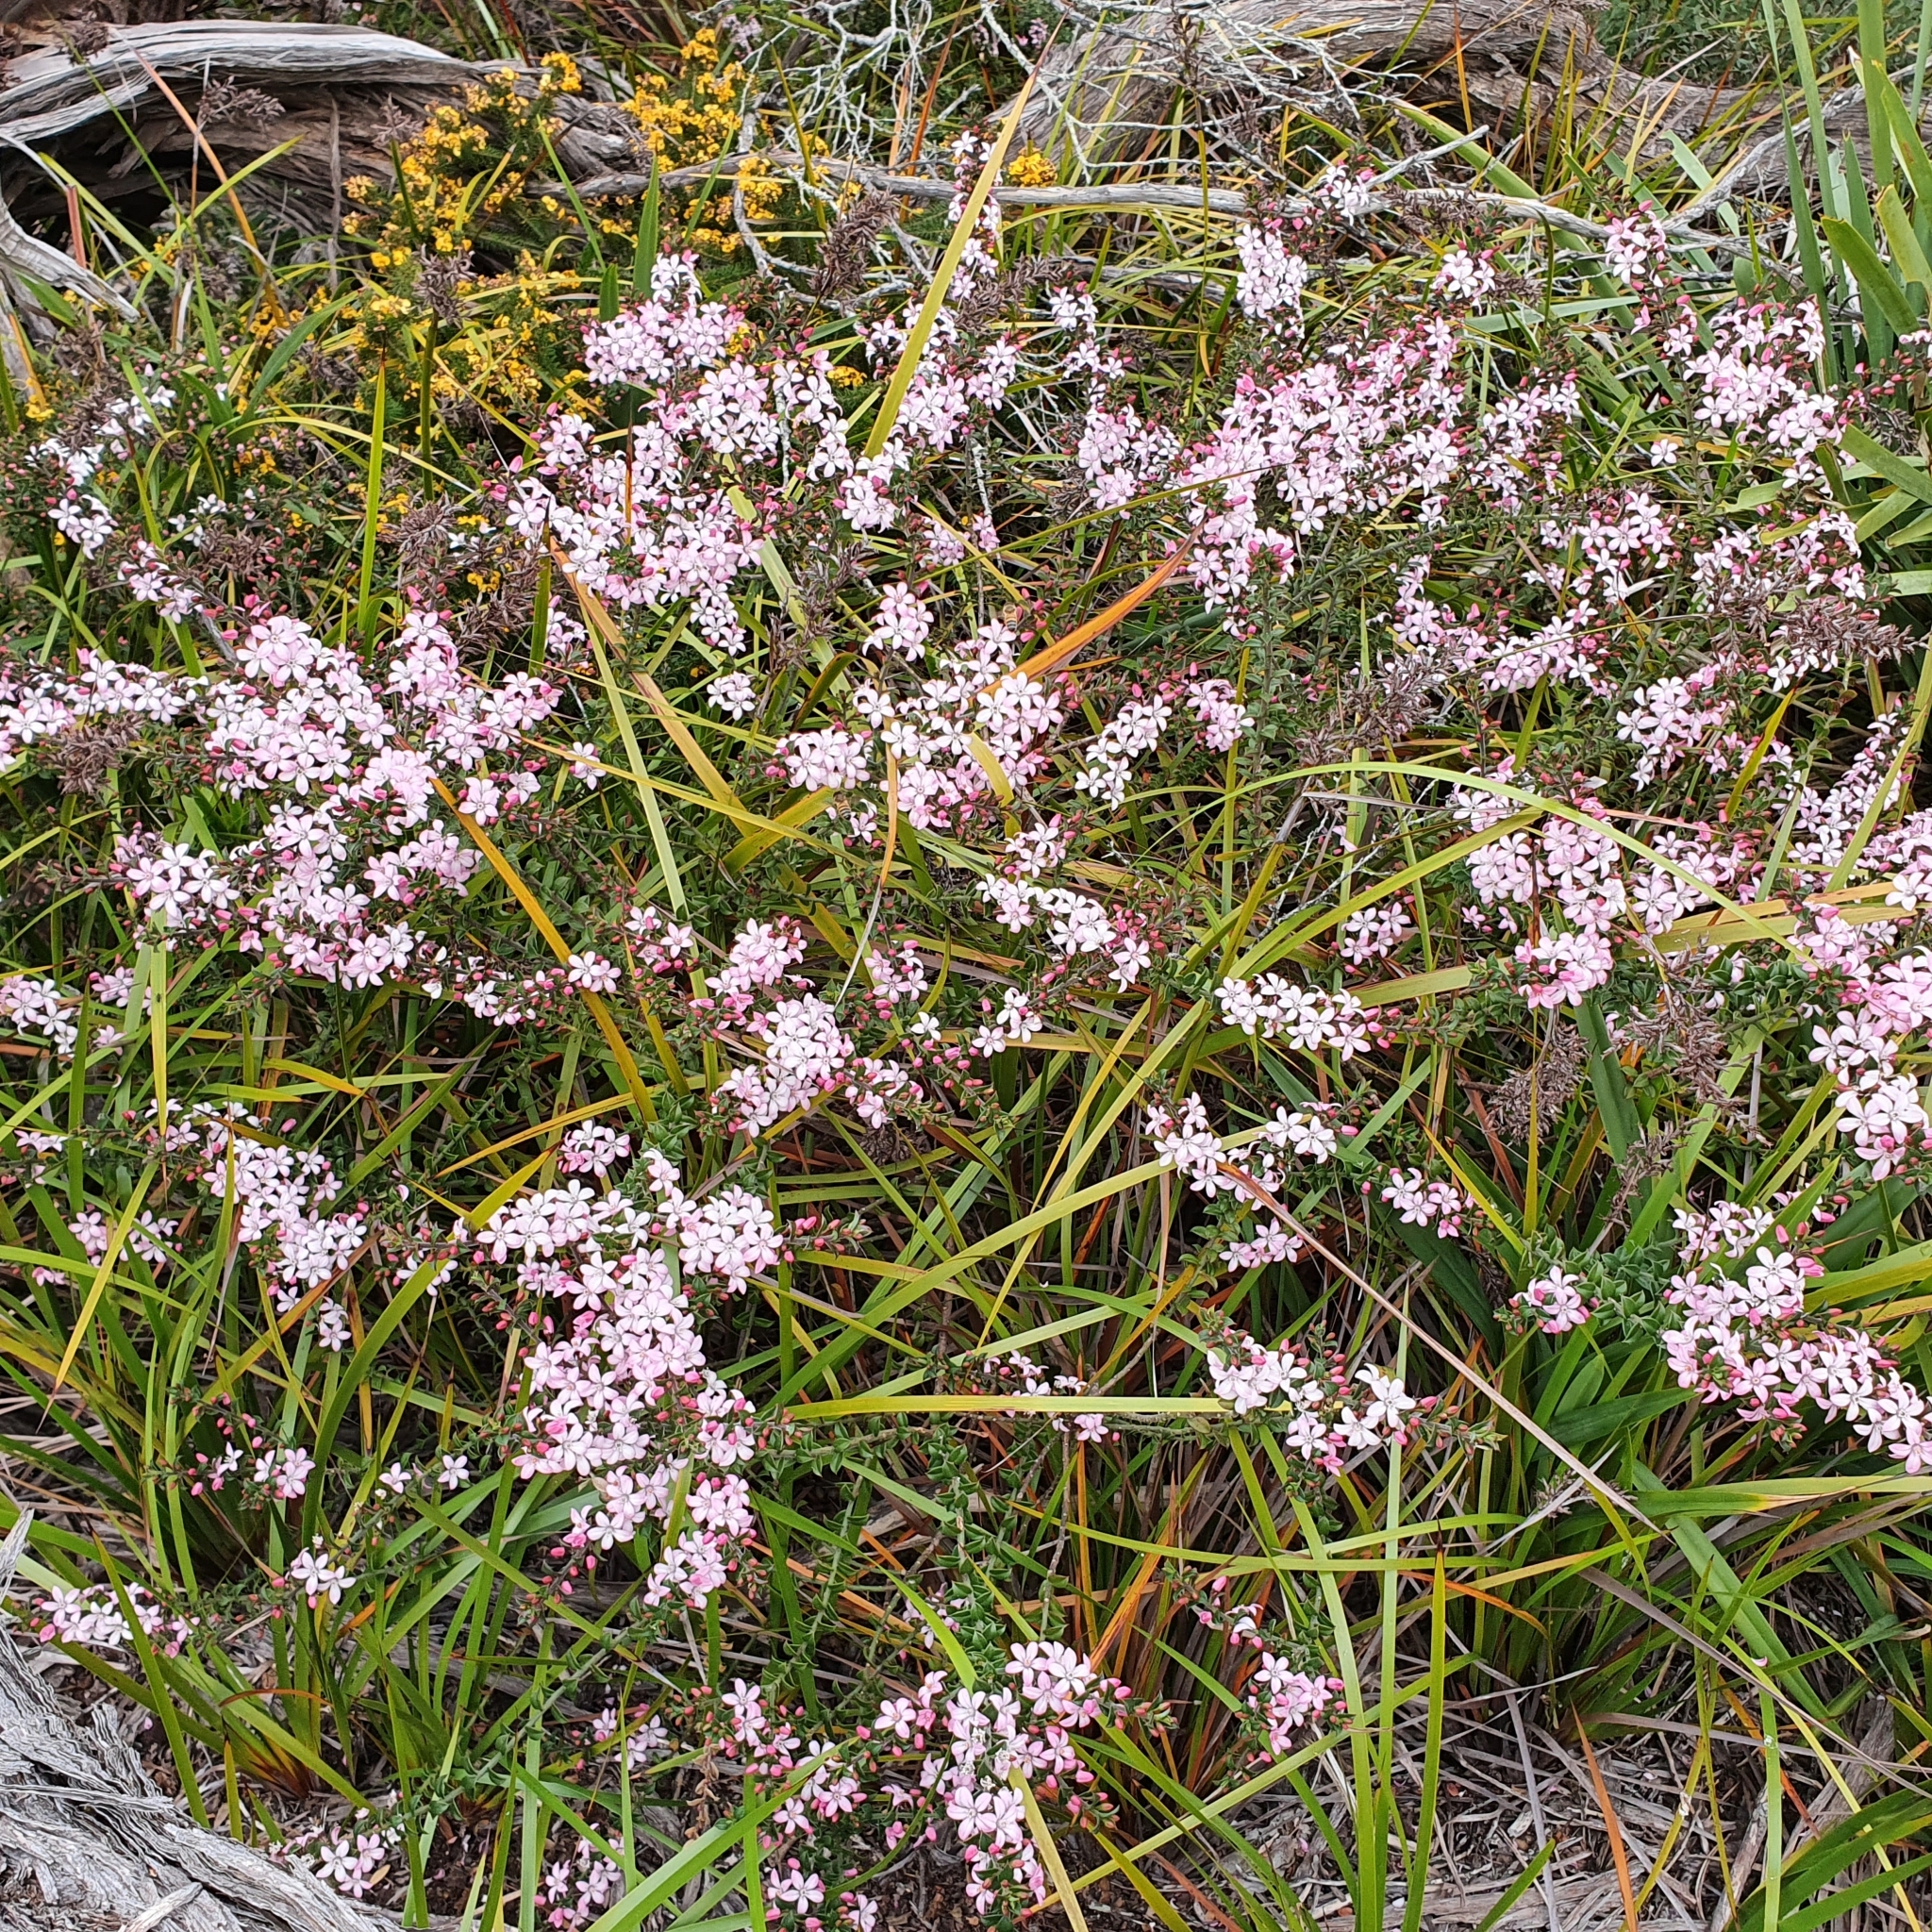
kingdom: Plantae
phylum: Tracheophyta
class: Magnoliopsida
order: Sapindales
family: Rutaceae
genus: Philotheca
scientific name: Philotheca buxifolia
